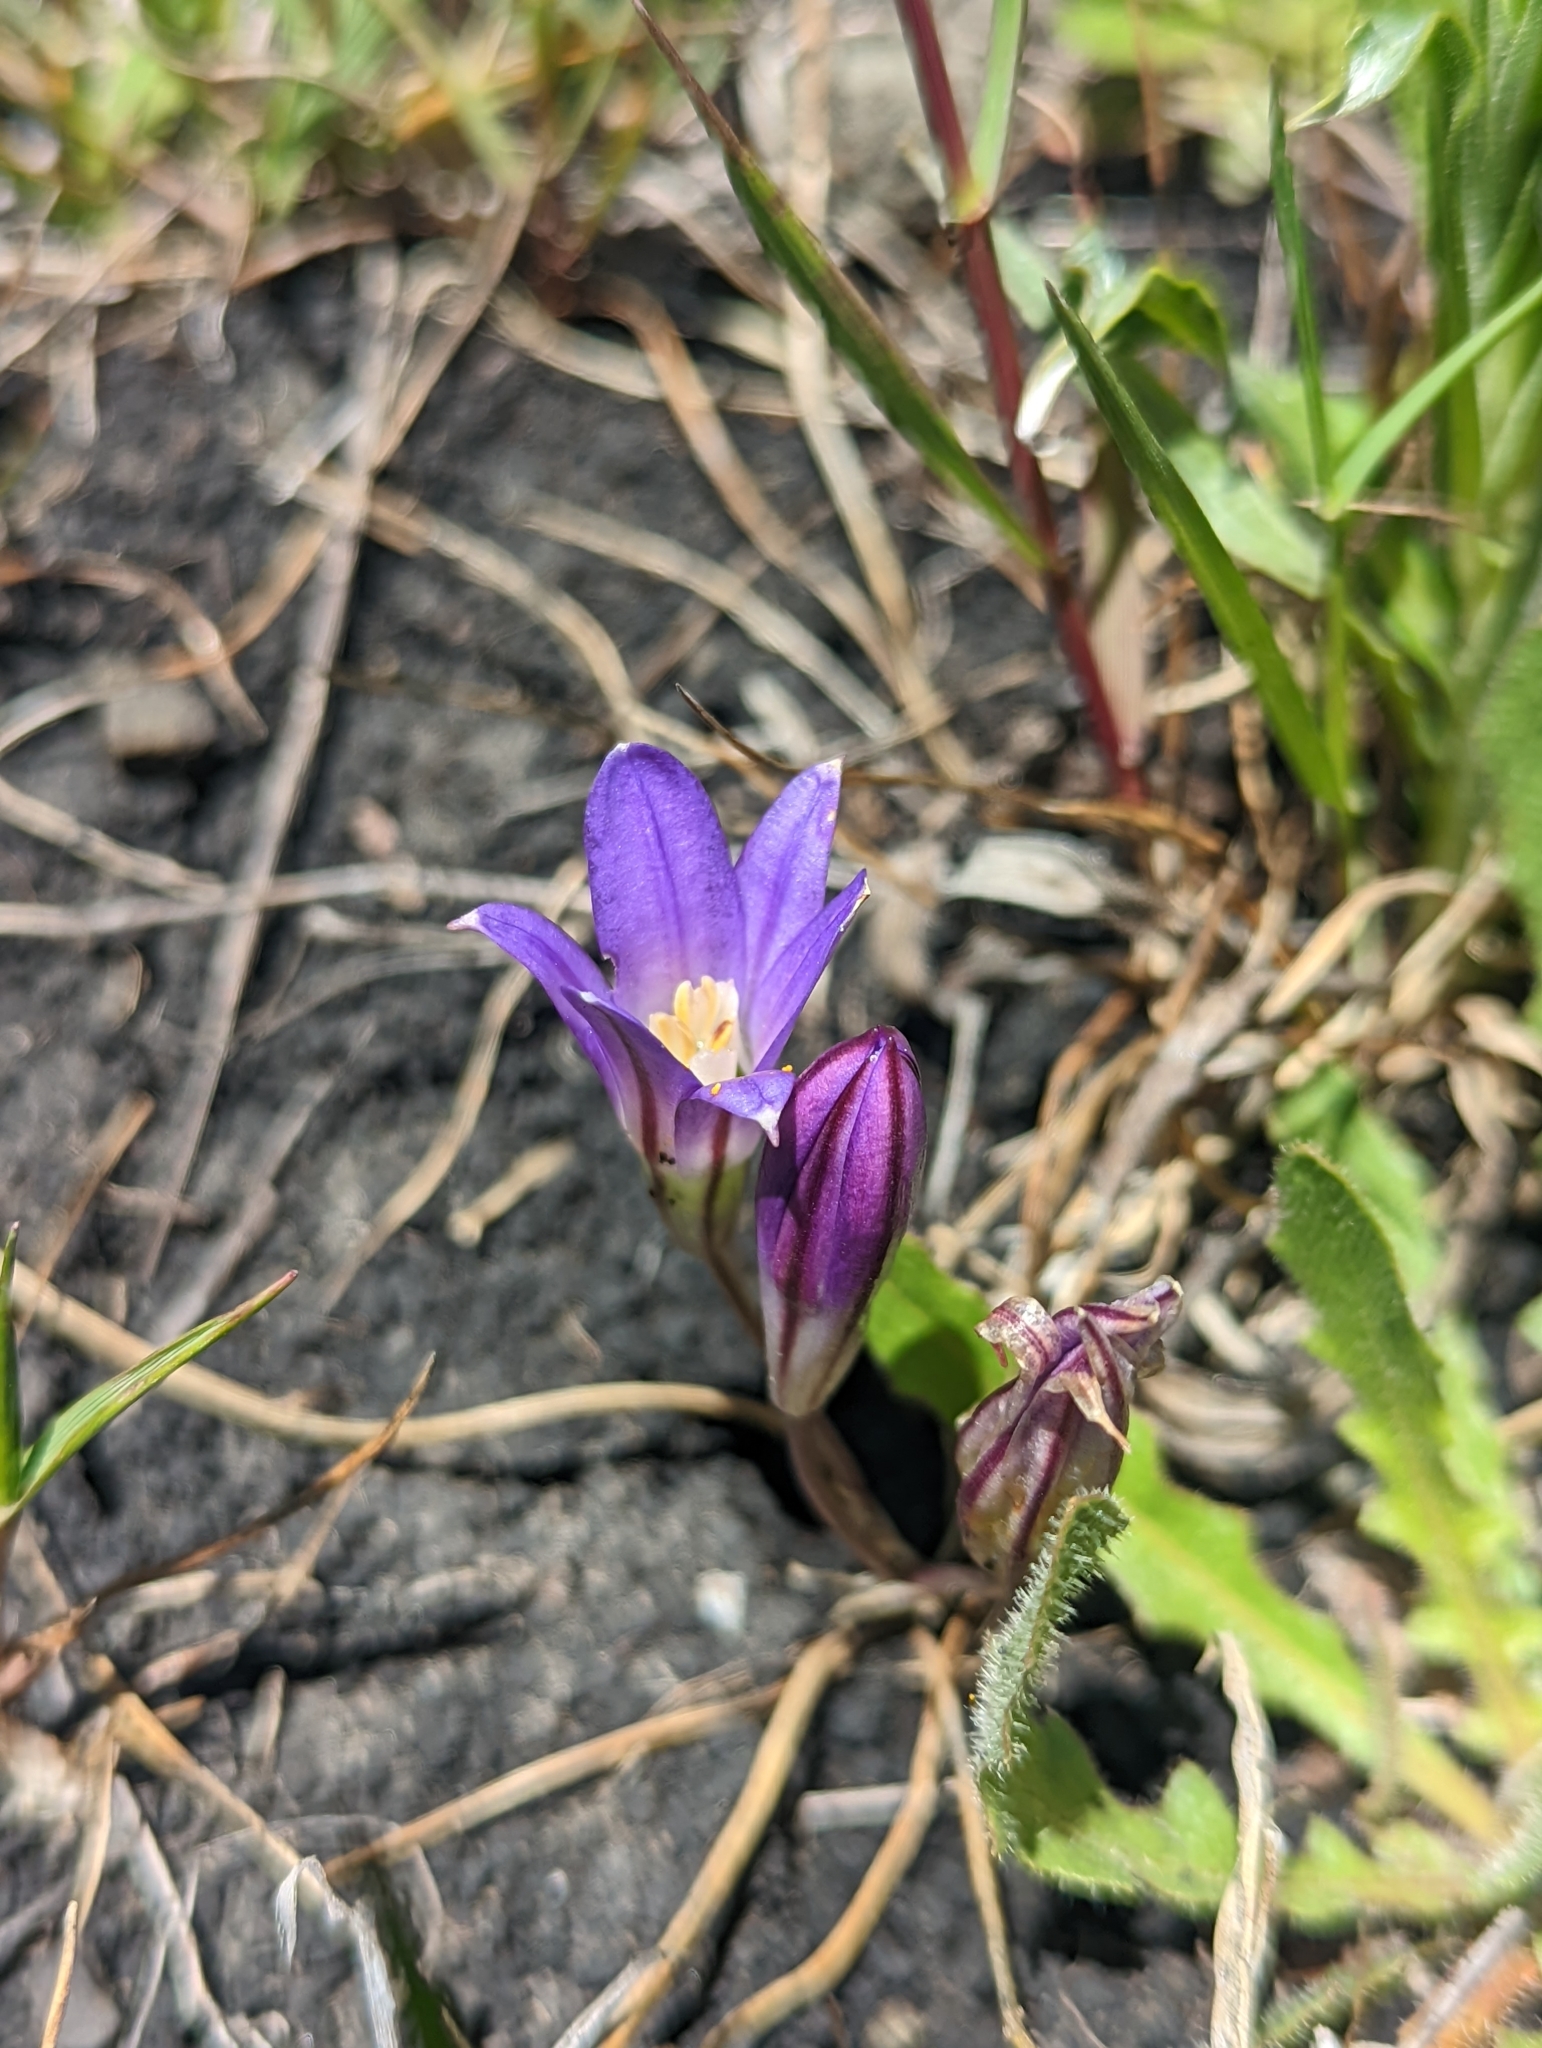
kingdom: Plantae
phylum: Tracheophyta
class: Liliopsida
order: Asparagales
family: Asparagaceae
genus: Brodiaea
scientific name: Brodiaea terrestris
